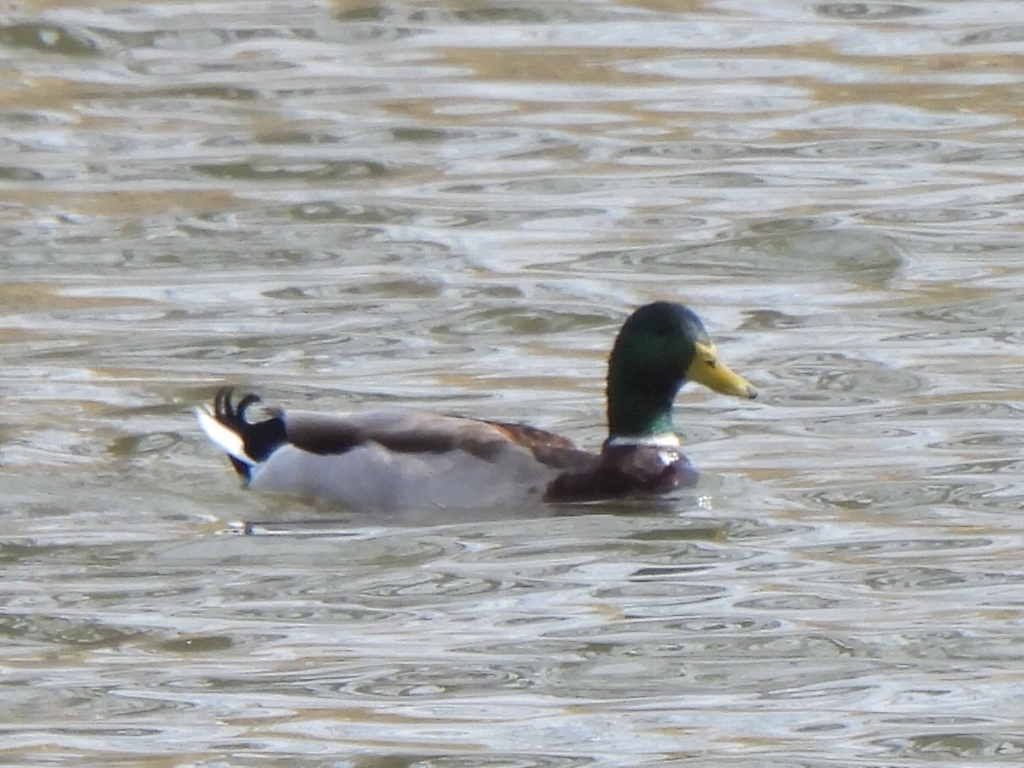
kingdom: Animalia
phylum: Chordata
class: Aves
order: Anseriformes
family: Anatidae
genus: Anas
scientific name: Anas platyrhynchos
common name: Mallard
